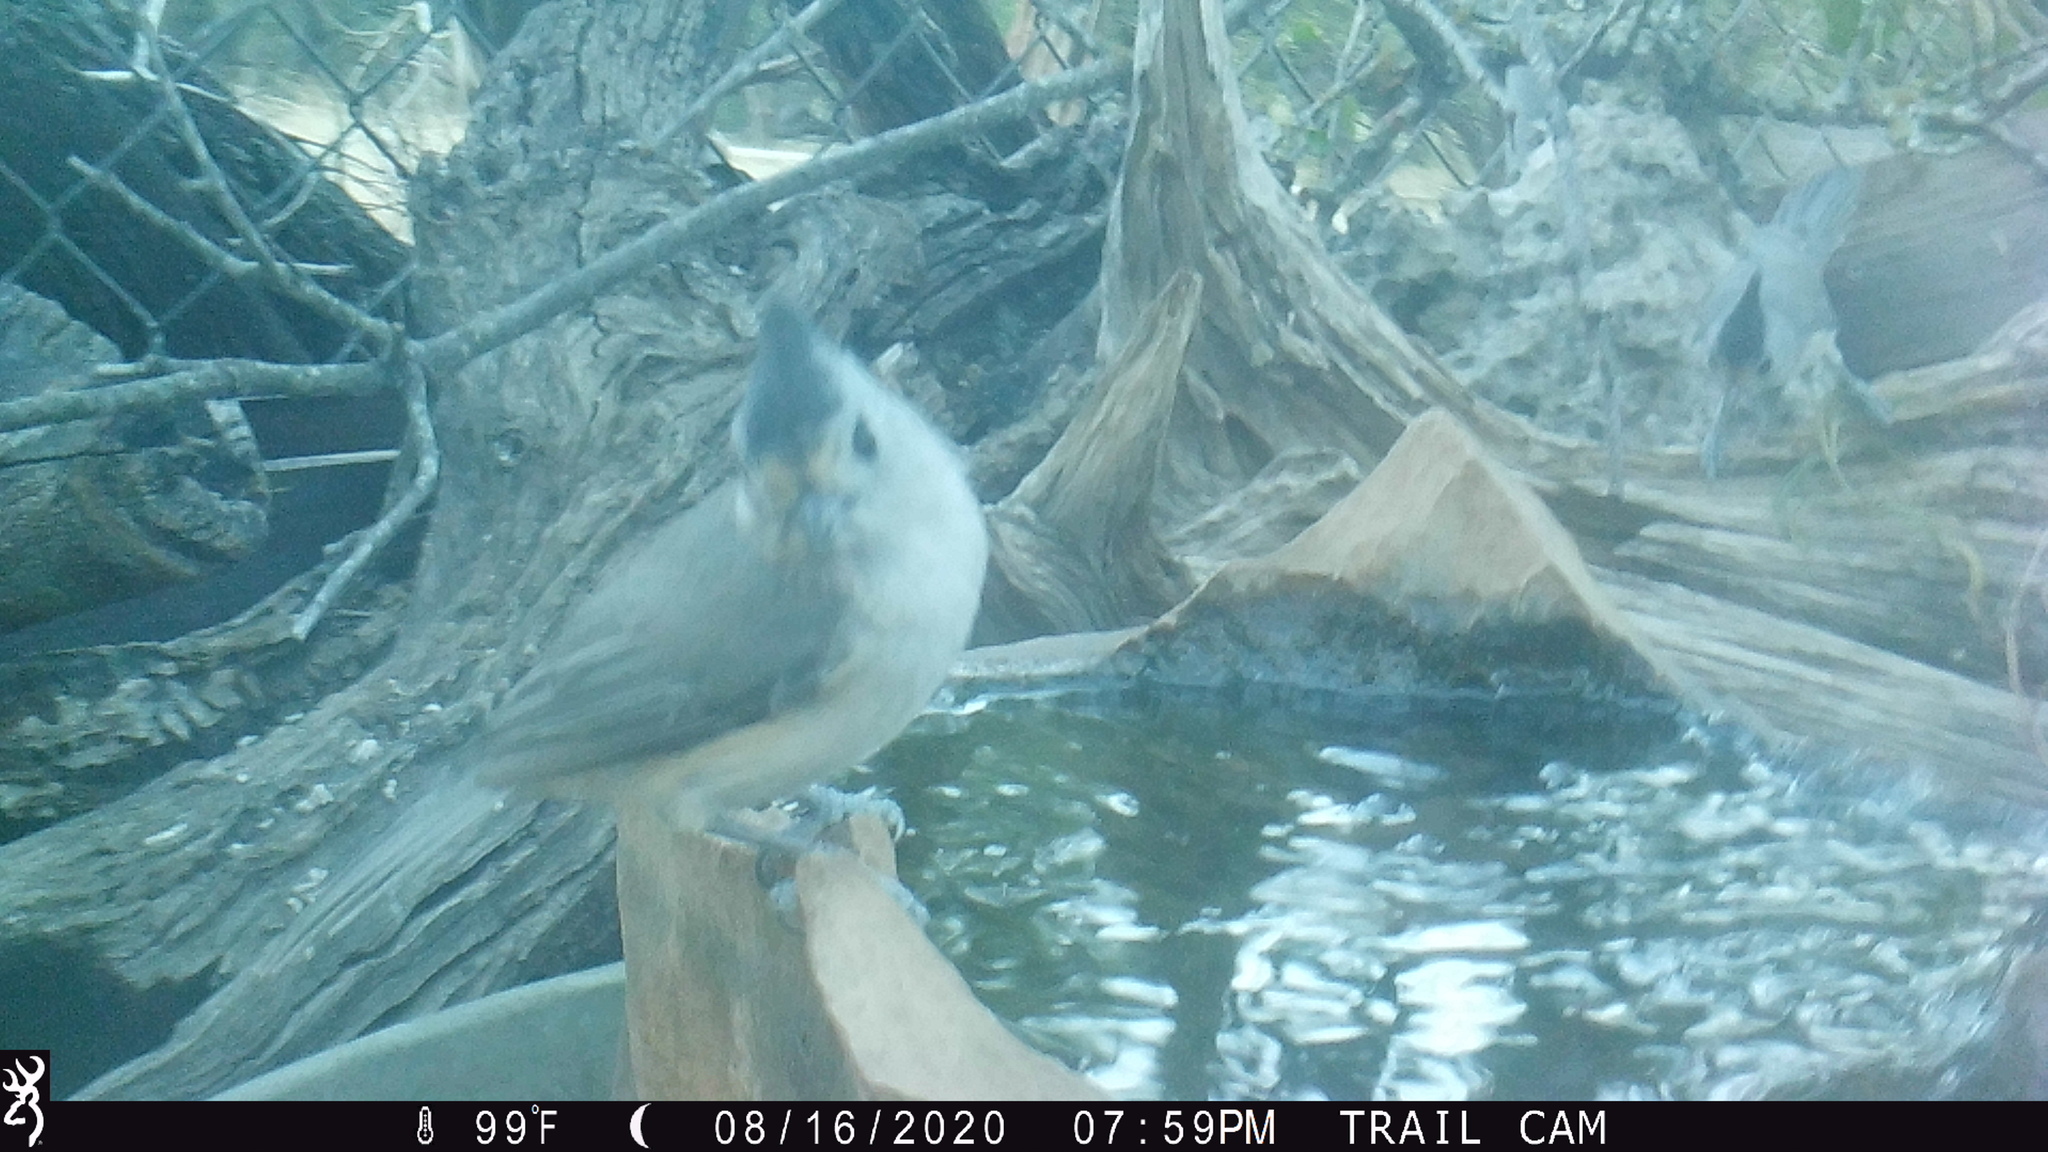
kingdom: Animalia
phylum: Chordata
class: Aves
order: Passeriformes
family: Paridae
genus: Baeolophus
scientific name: Baeolophus atricristatus
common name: Black-crested titmouse
